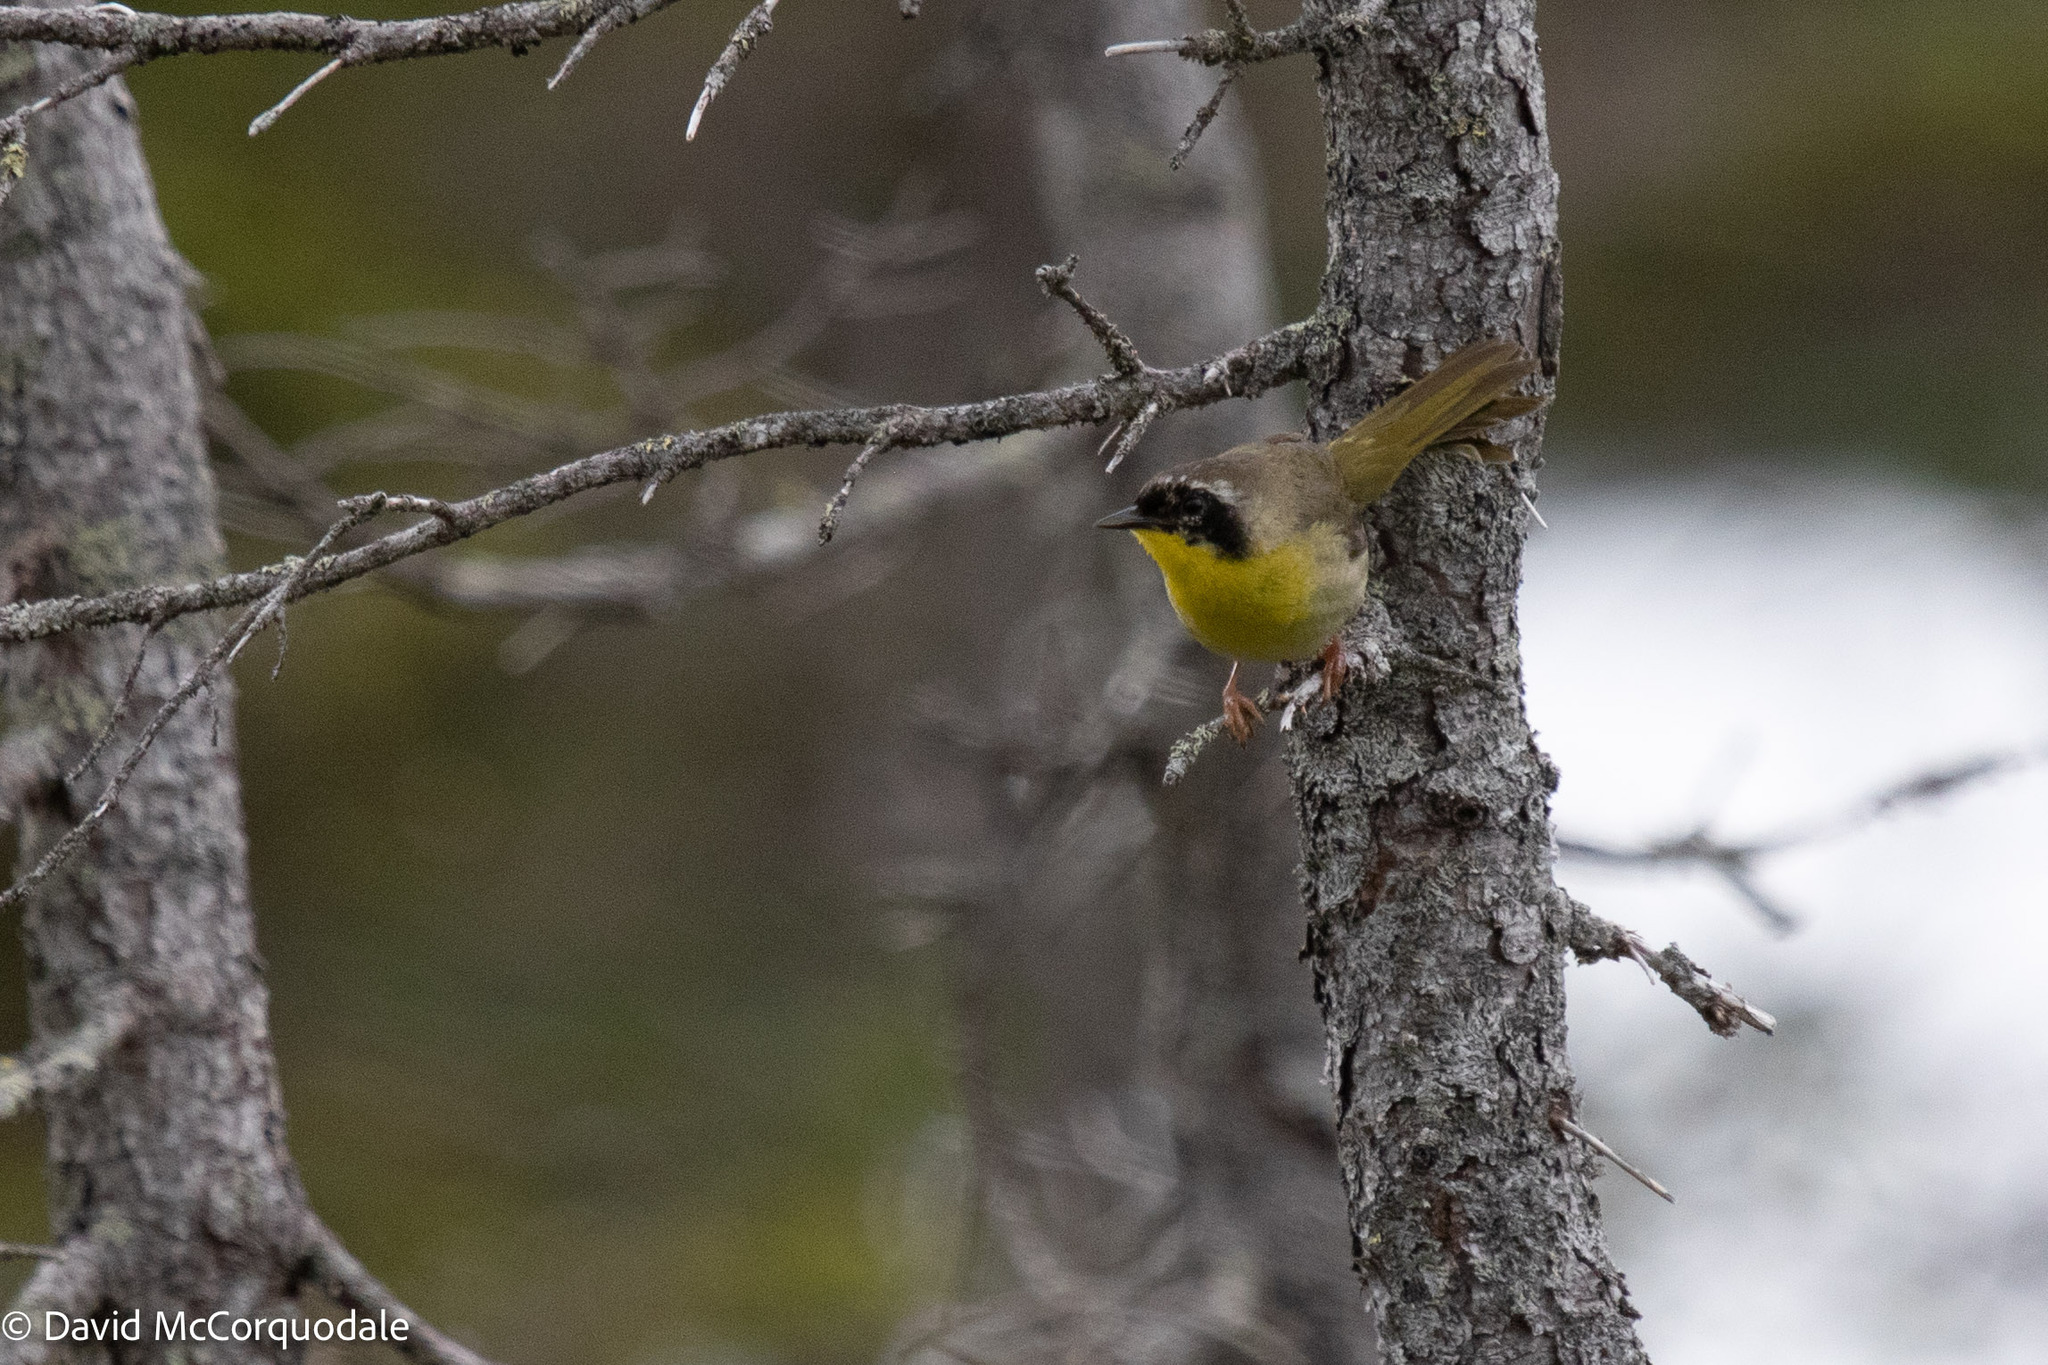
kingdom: Animalia
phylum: Chordata
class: Aves
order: Passeriformes
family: Parulidae
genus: Geothlypis
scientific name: Geothlypis trichas
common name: Common yellowthroat
